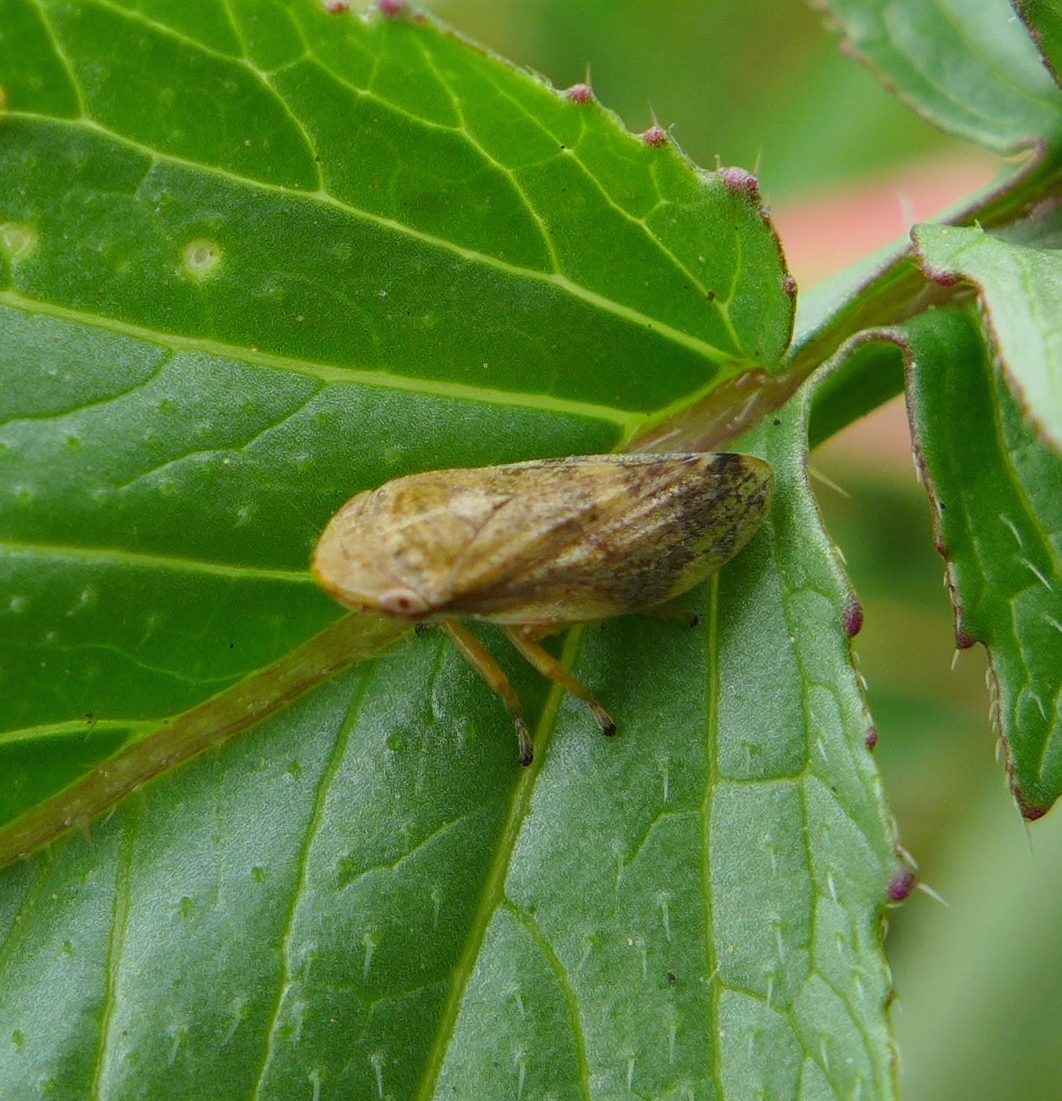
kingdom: Animalia
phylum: Arthropoda
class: Insecta
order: Hemiptera
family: Aphrophoridae
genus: Philaenus
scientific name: Philaenus spumarius
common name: Meadow spittlebug
